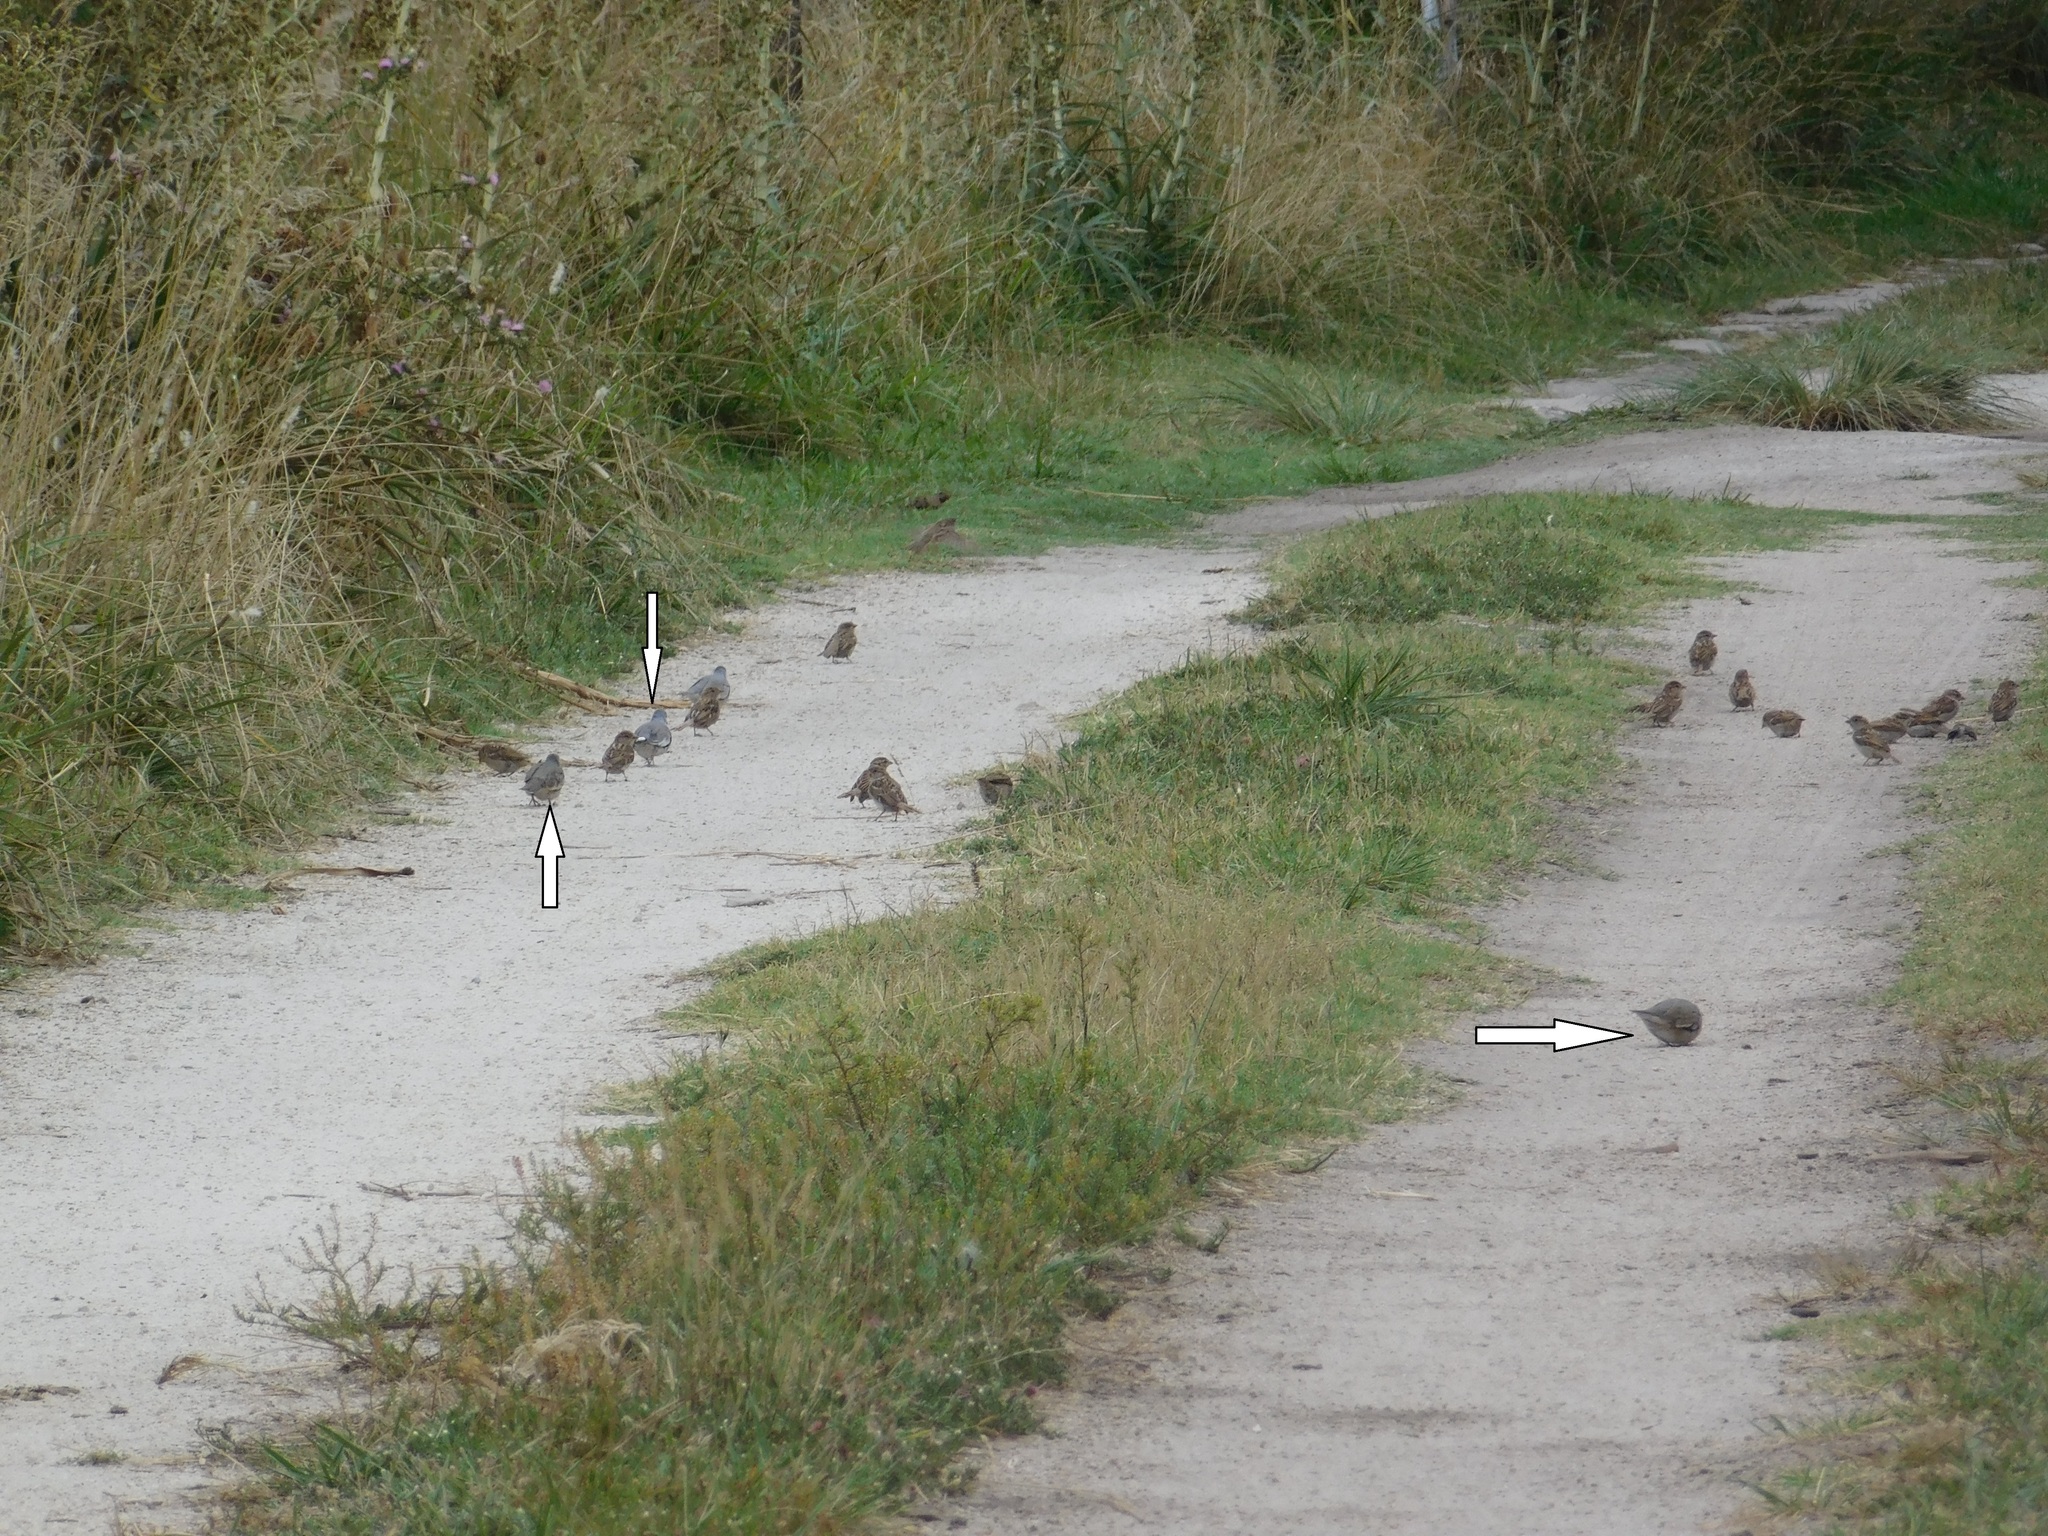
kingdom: Animalia
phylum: Chordata
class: Aves
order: Columbiformes
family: Columbidae
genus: Columbina
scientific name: Columbina picui
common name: Picui ground dove
